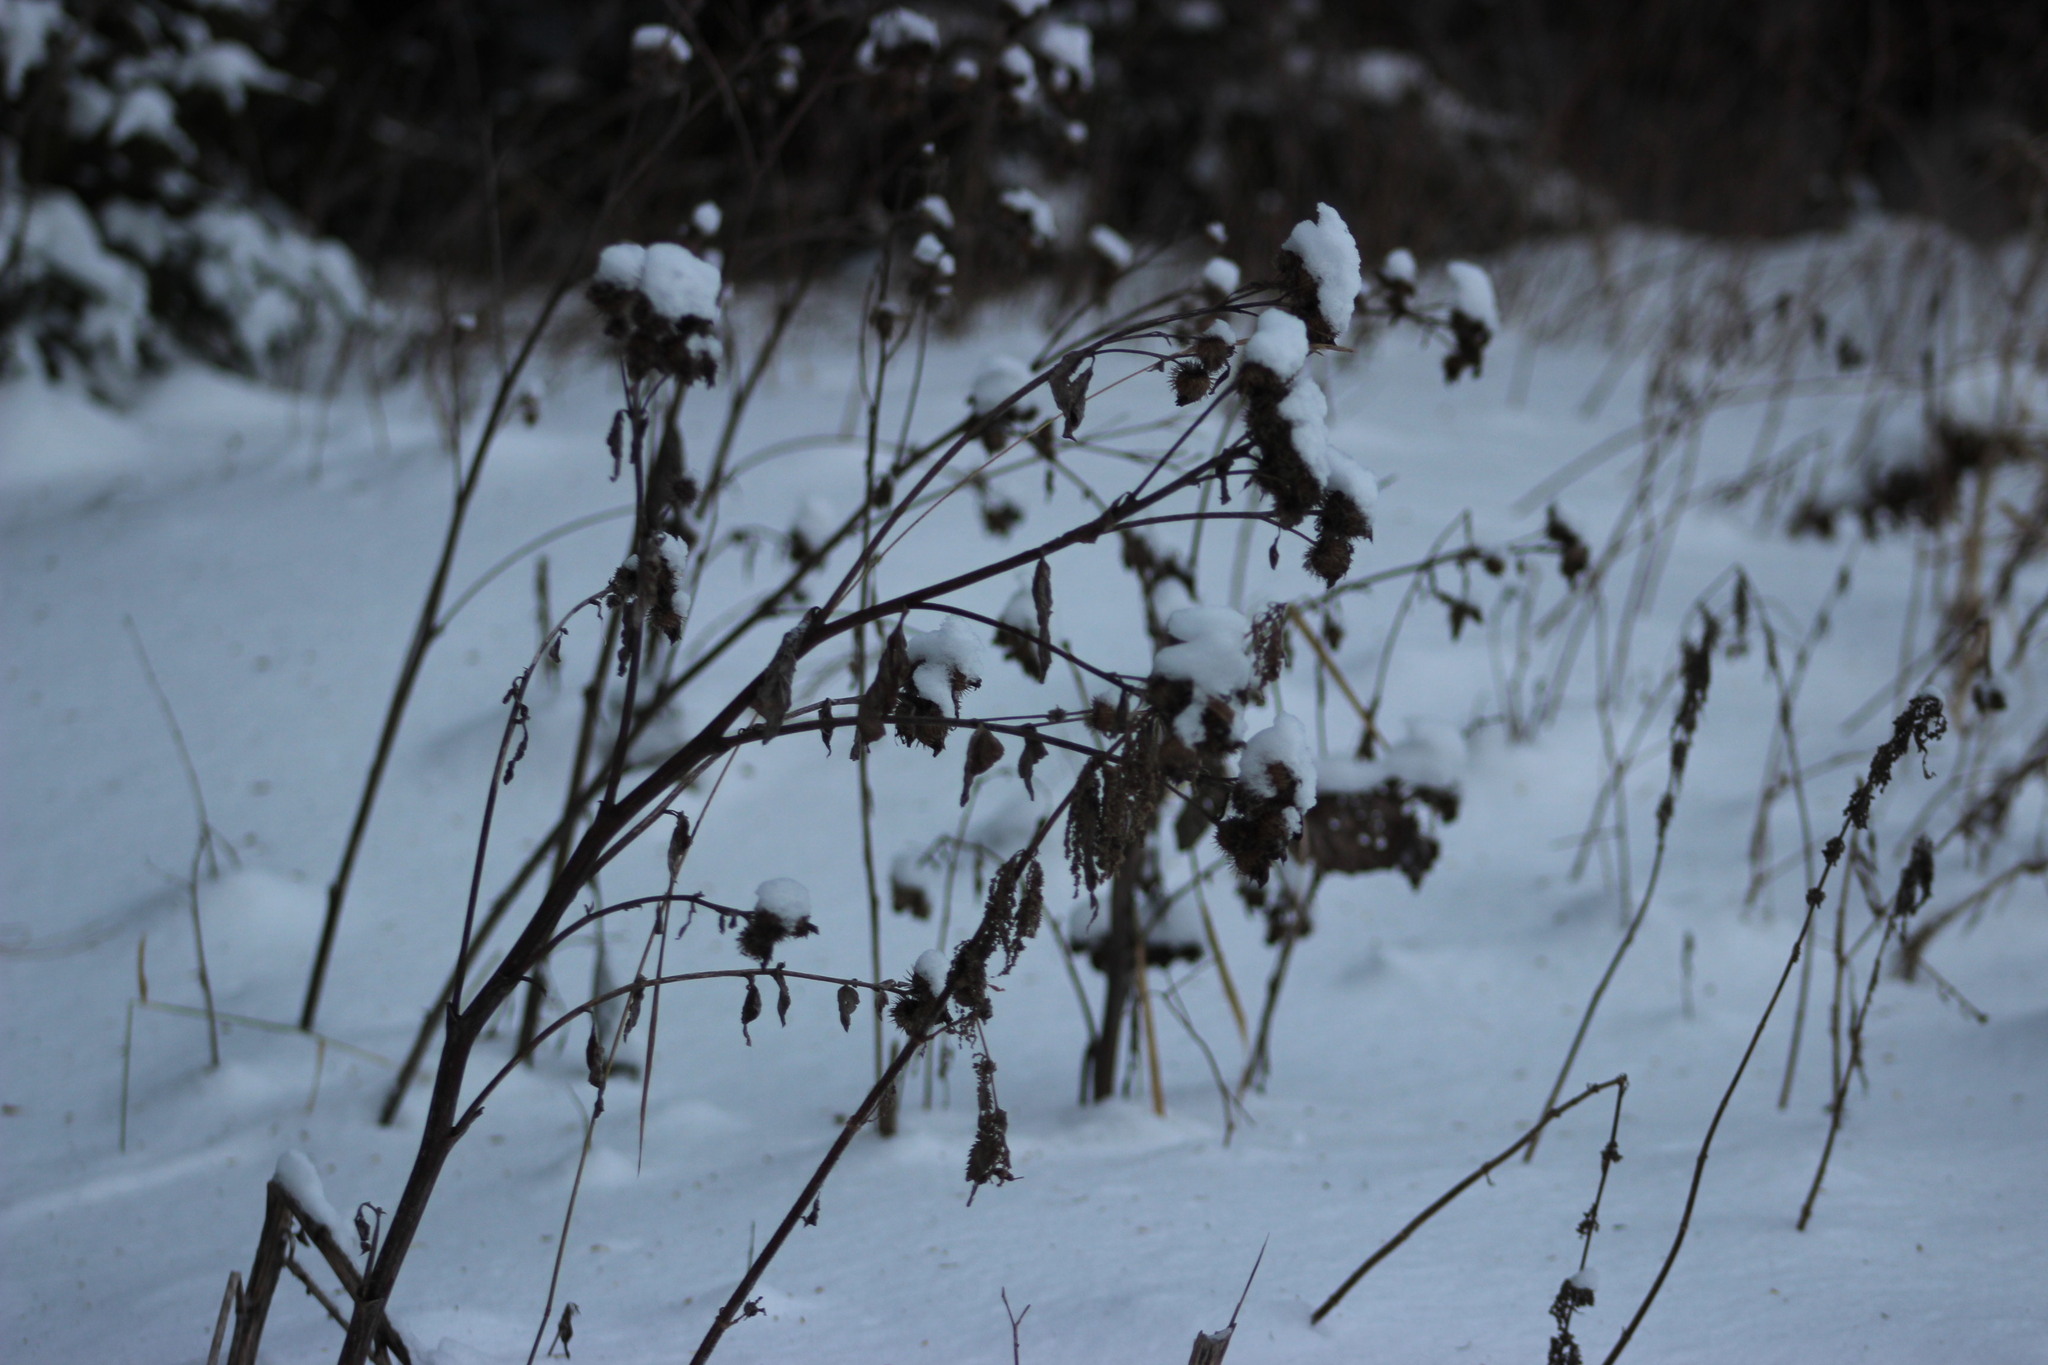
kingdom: Plantae
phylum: Tracheophyta
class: Magnoliopsida
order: Asterales
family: Asteraceae
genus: Arctium
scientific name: Arctium tomentosum
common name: Woolly burdock
